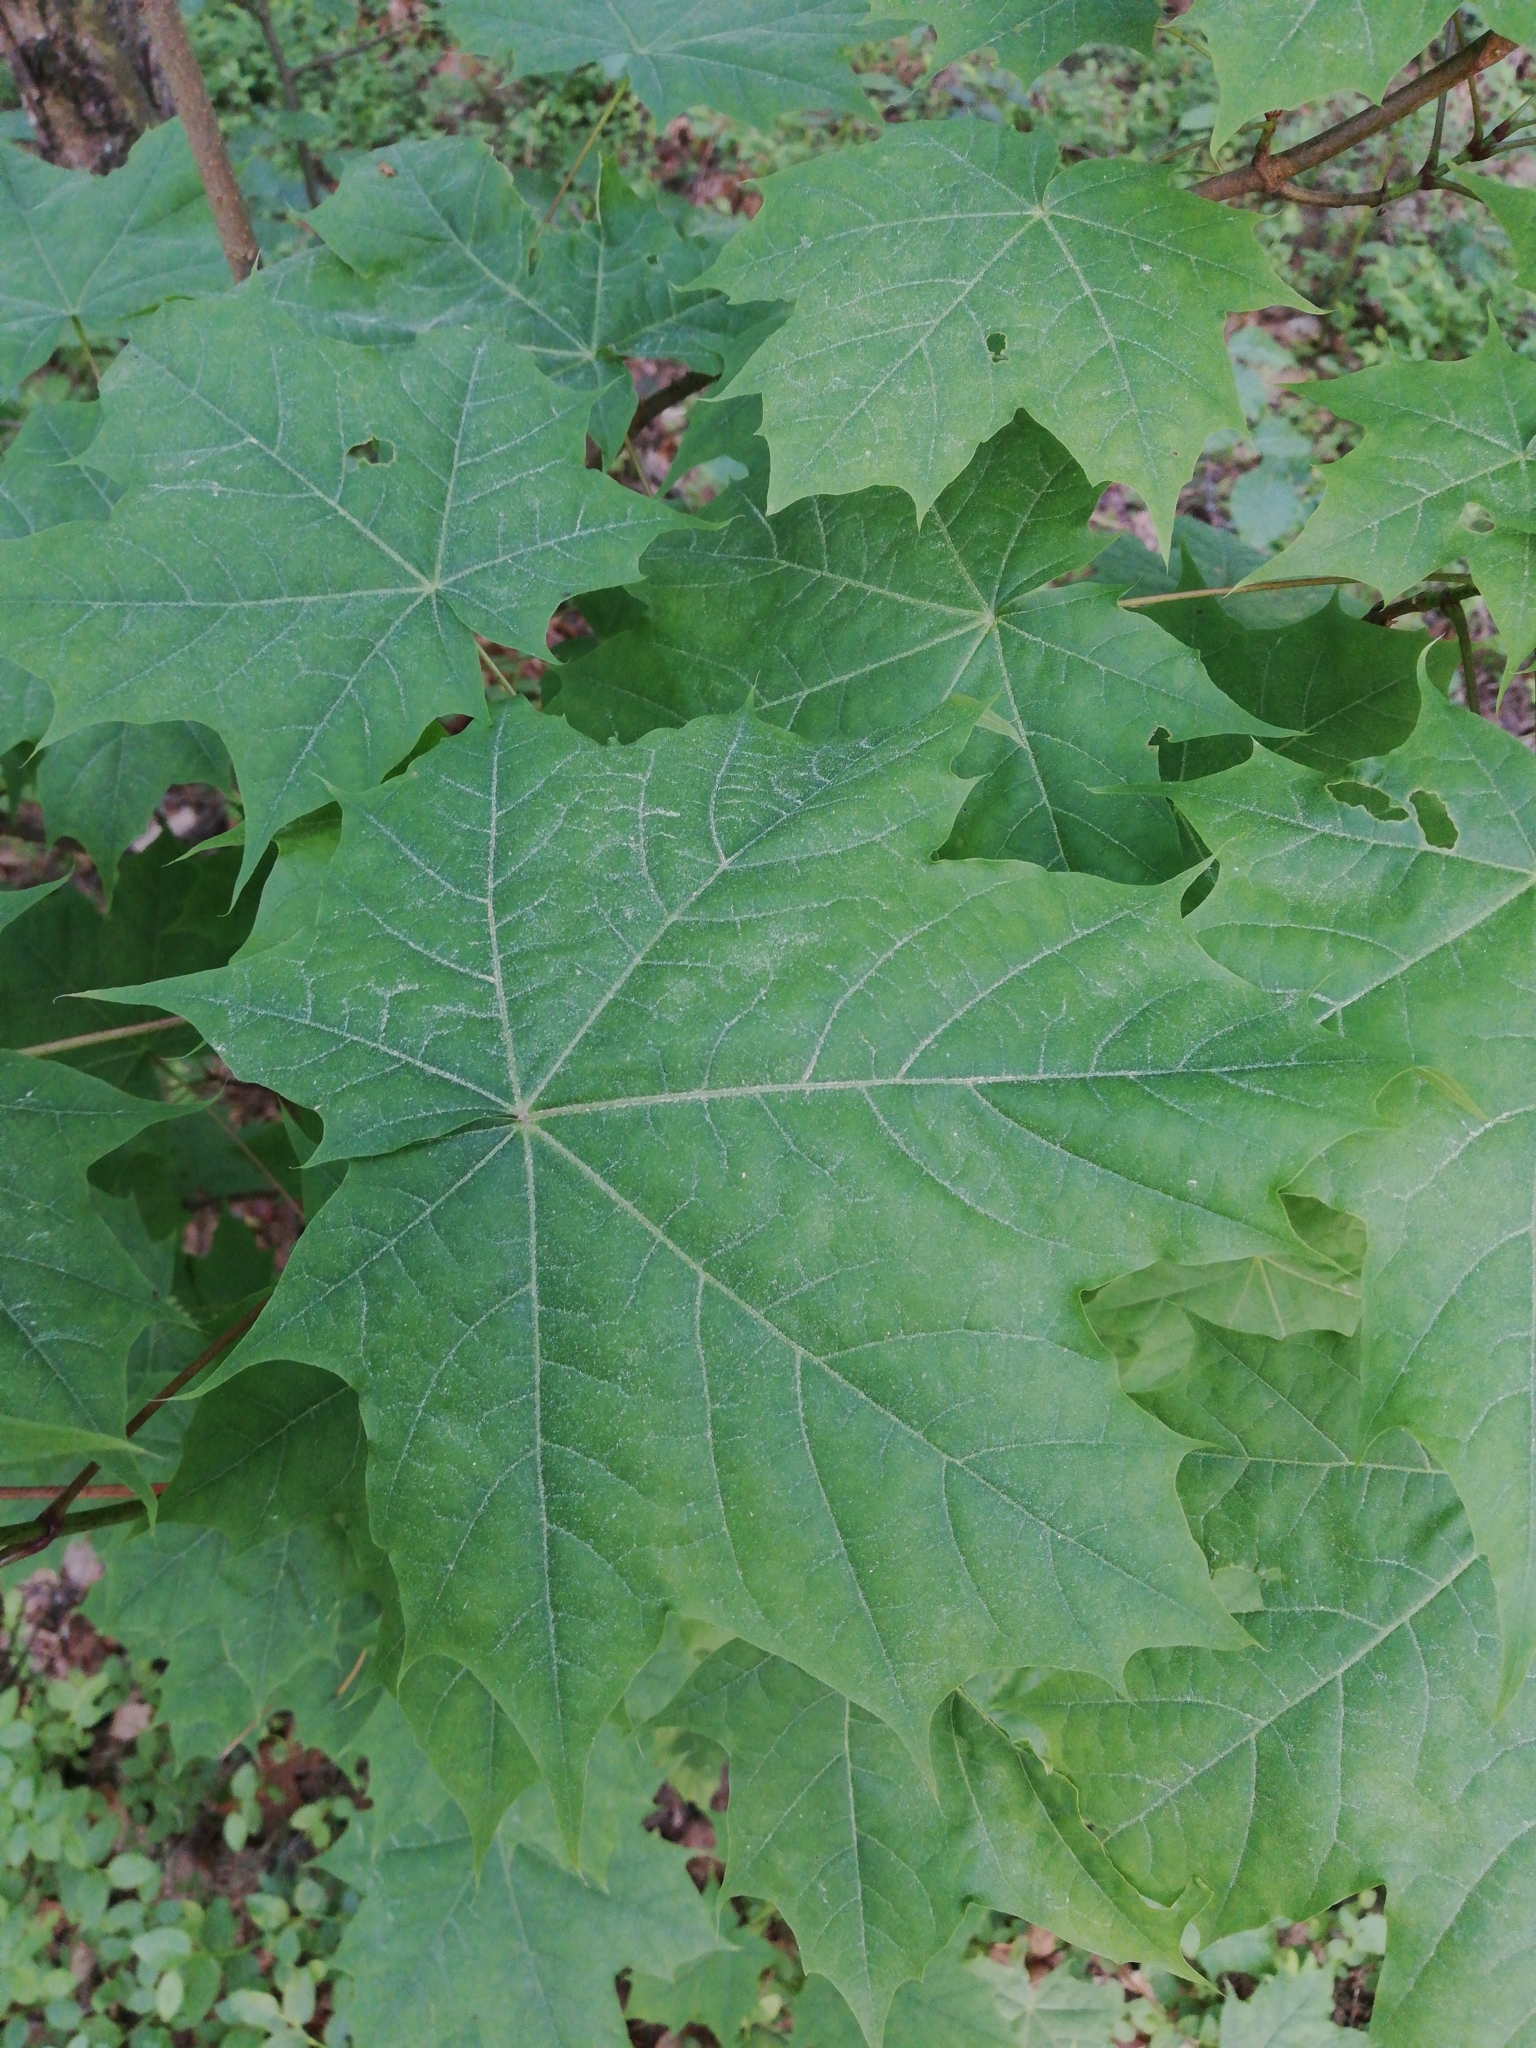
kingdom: Plantae
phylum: Tracheophyta
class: Magnoliopsida
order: Sapindales
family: Sapindaceae
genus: Acer
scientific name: Acer platanoides
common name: Norway maple
